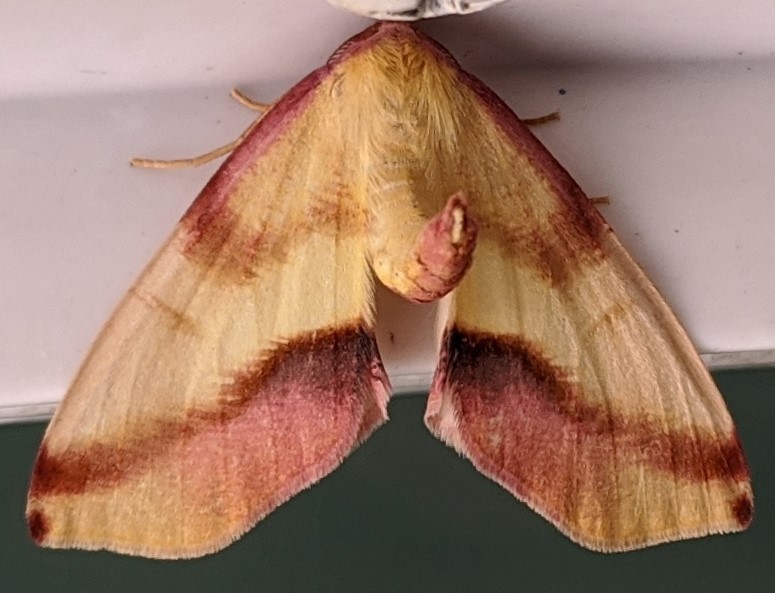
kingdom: Animalia
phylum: Arthropoda
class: Insecta
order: Lepidoptera
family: Geometridae
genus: Plagodis
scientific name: Plagodis serinaria
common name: Lemon plagodis
